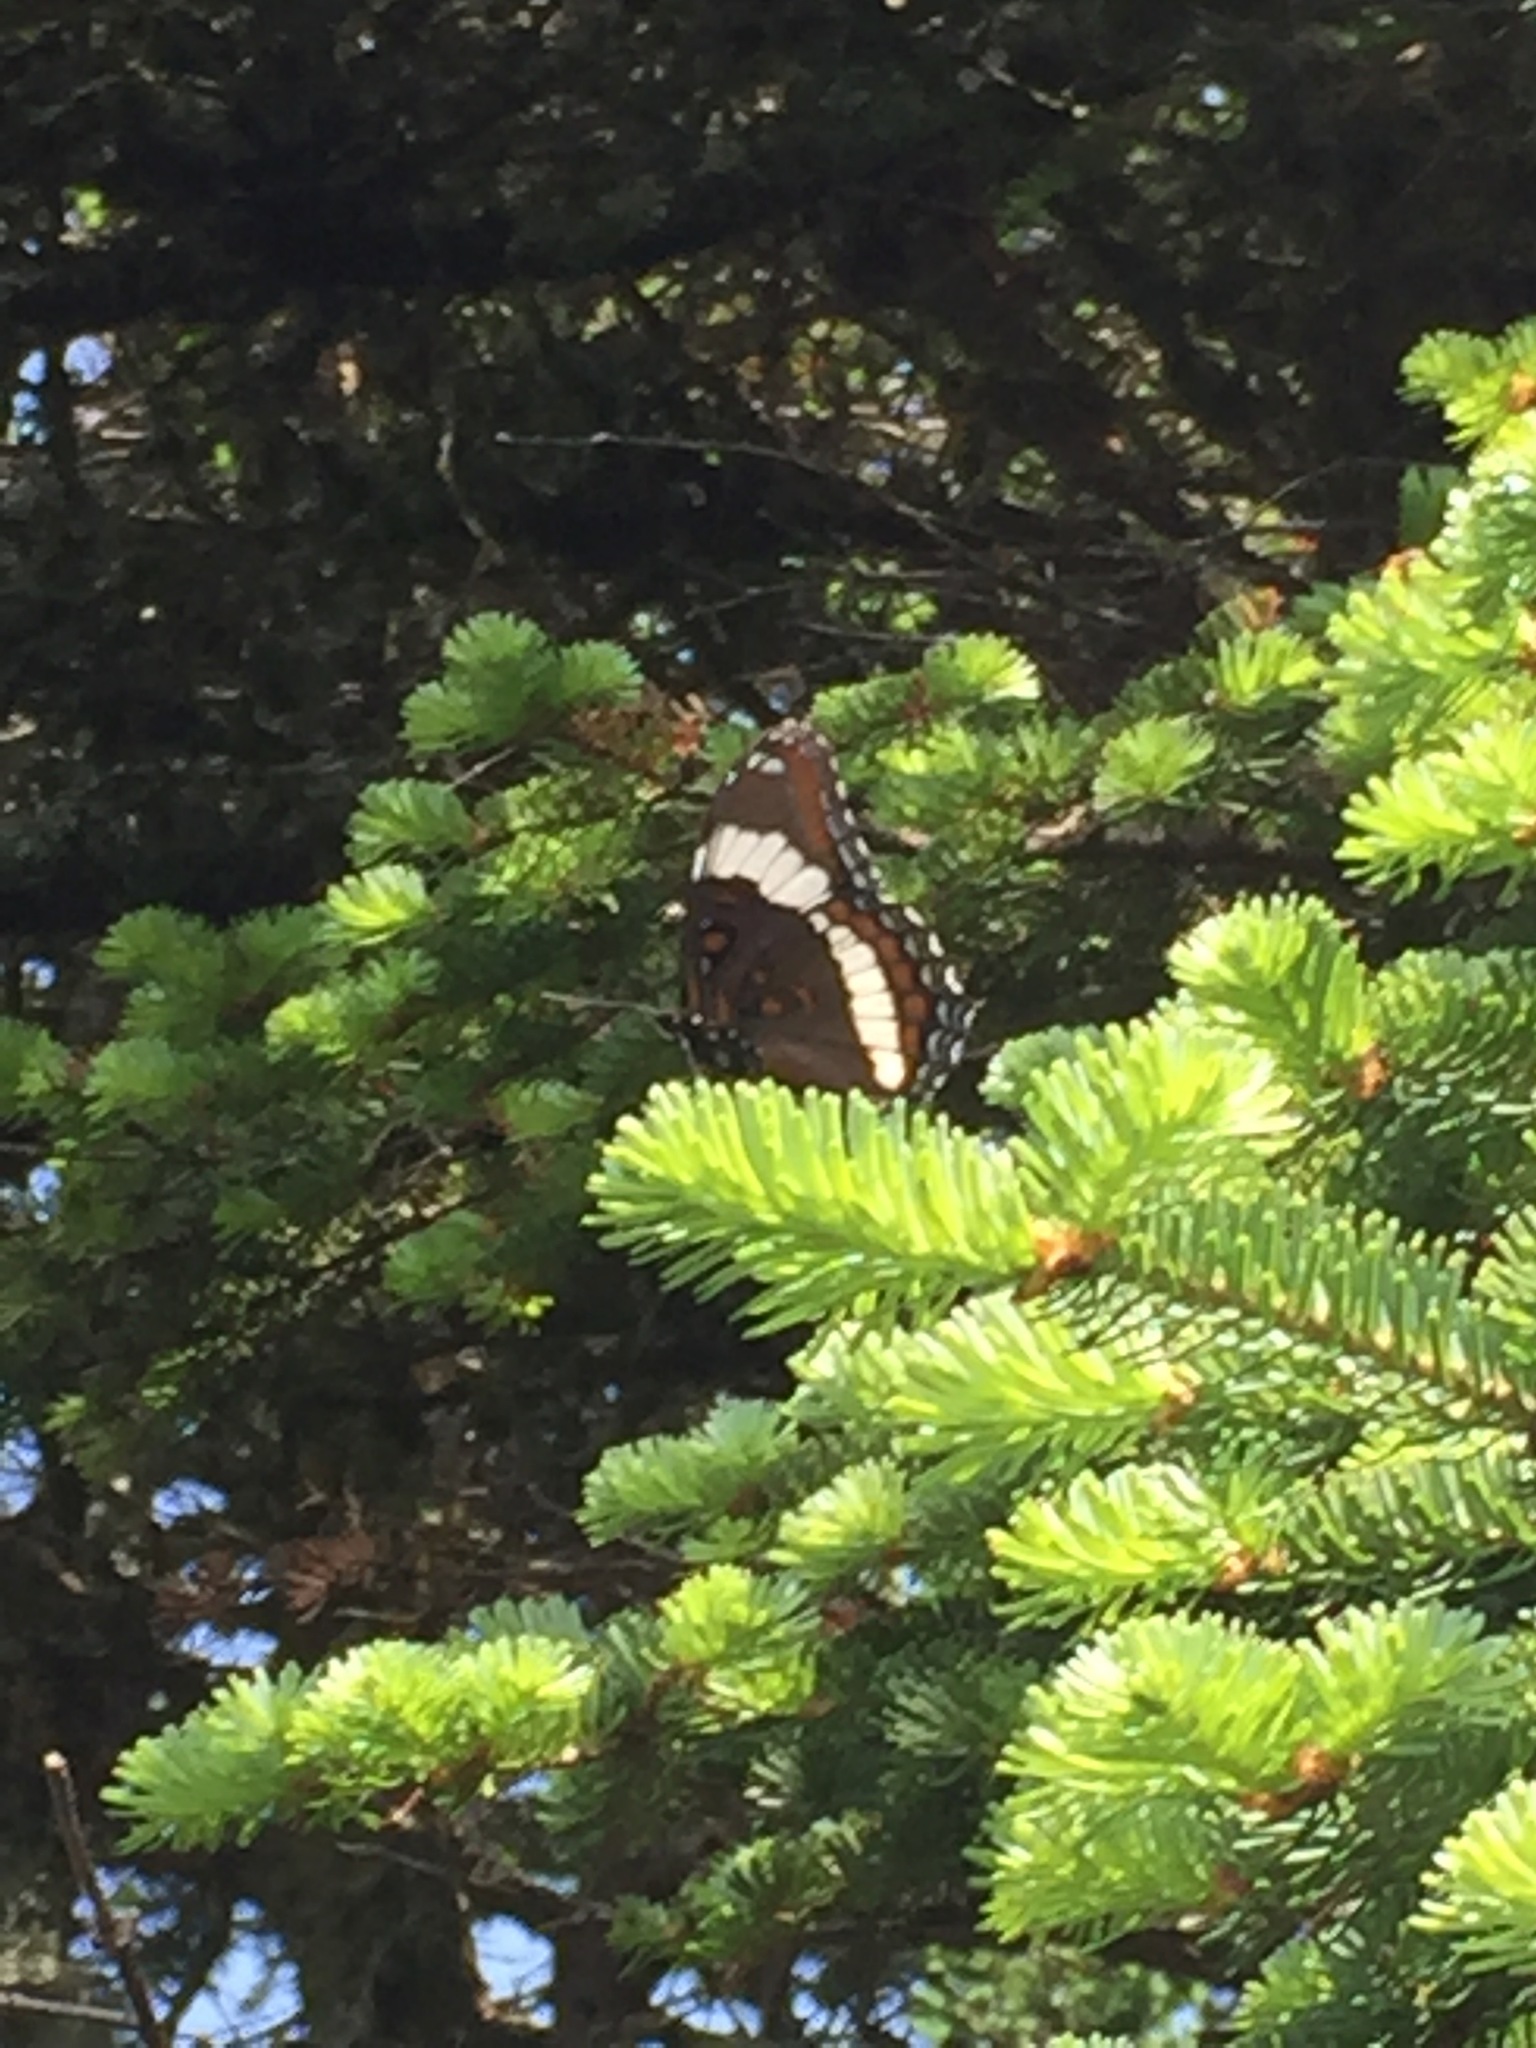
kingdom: Animalia
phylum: Arthropoda
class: Insecta
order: Lepidoptera
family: Nymphalidae
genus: Limenitis
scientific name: Limenitis arthemis
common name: Red-spotted admiral
